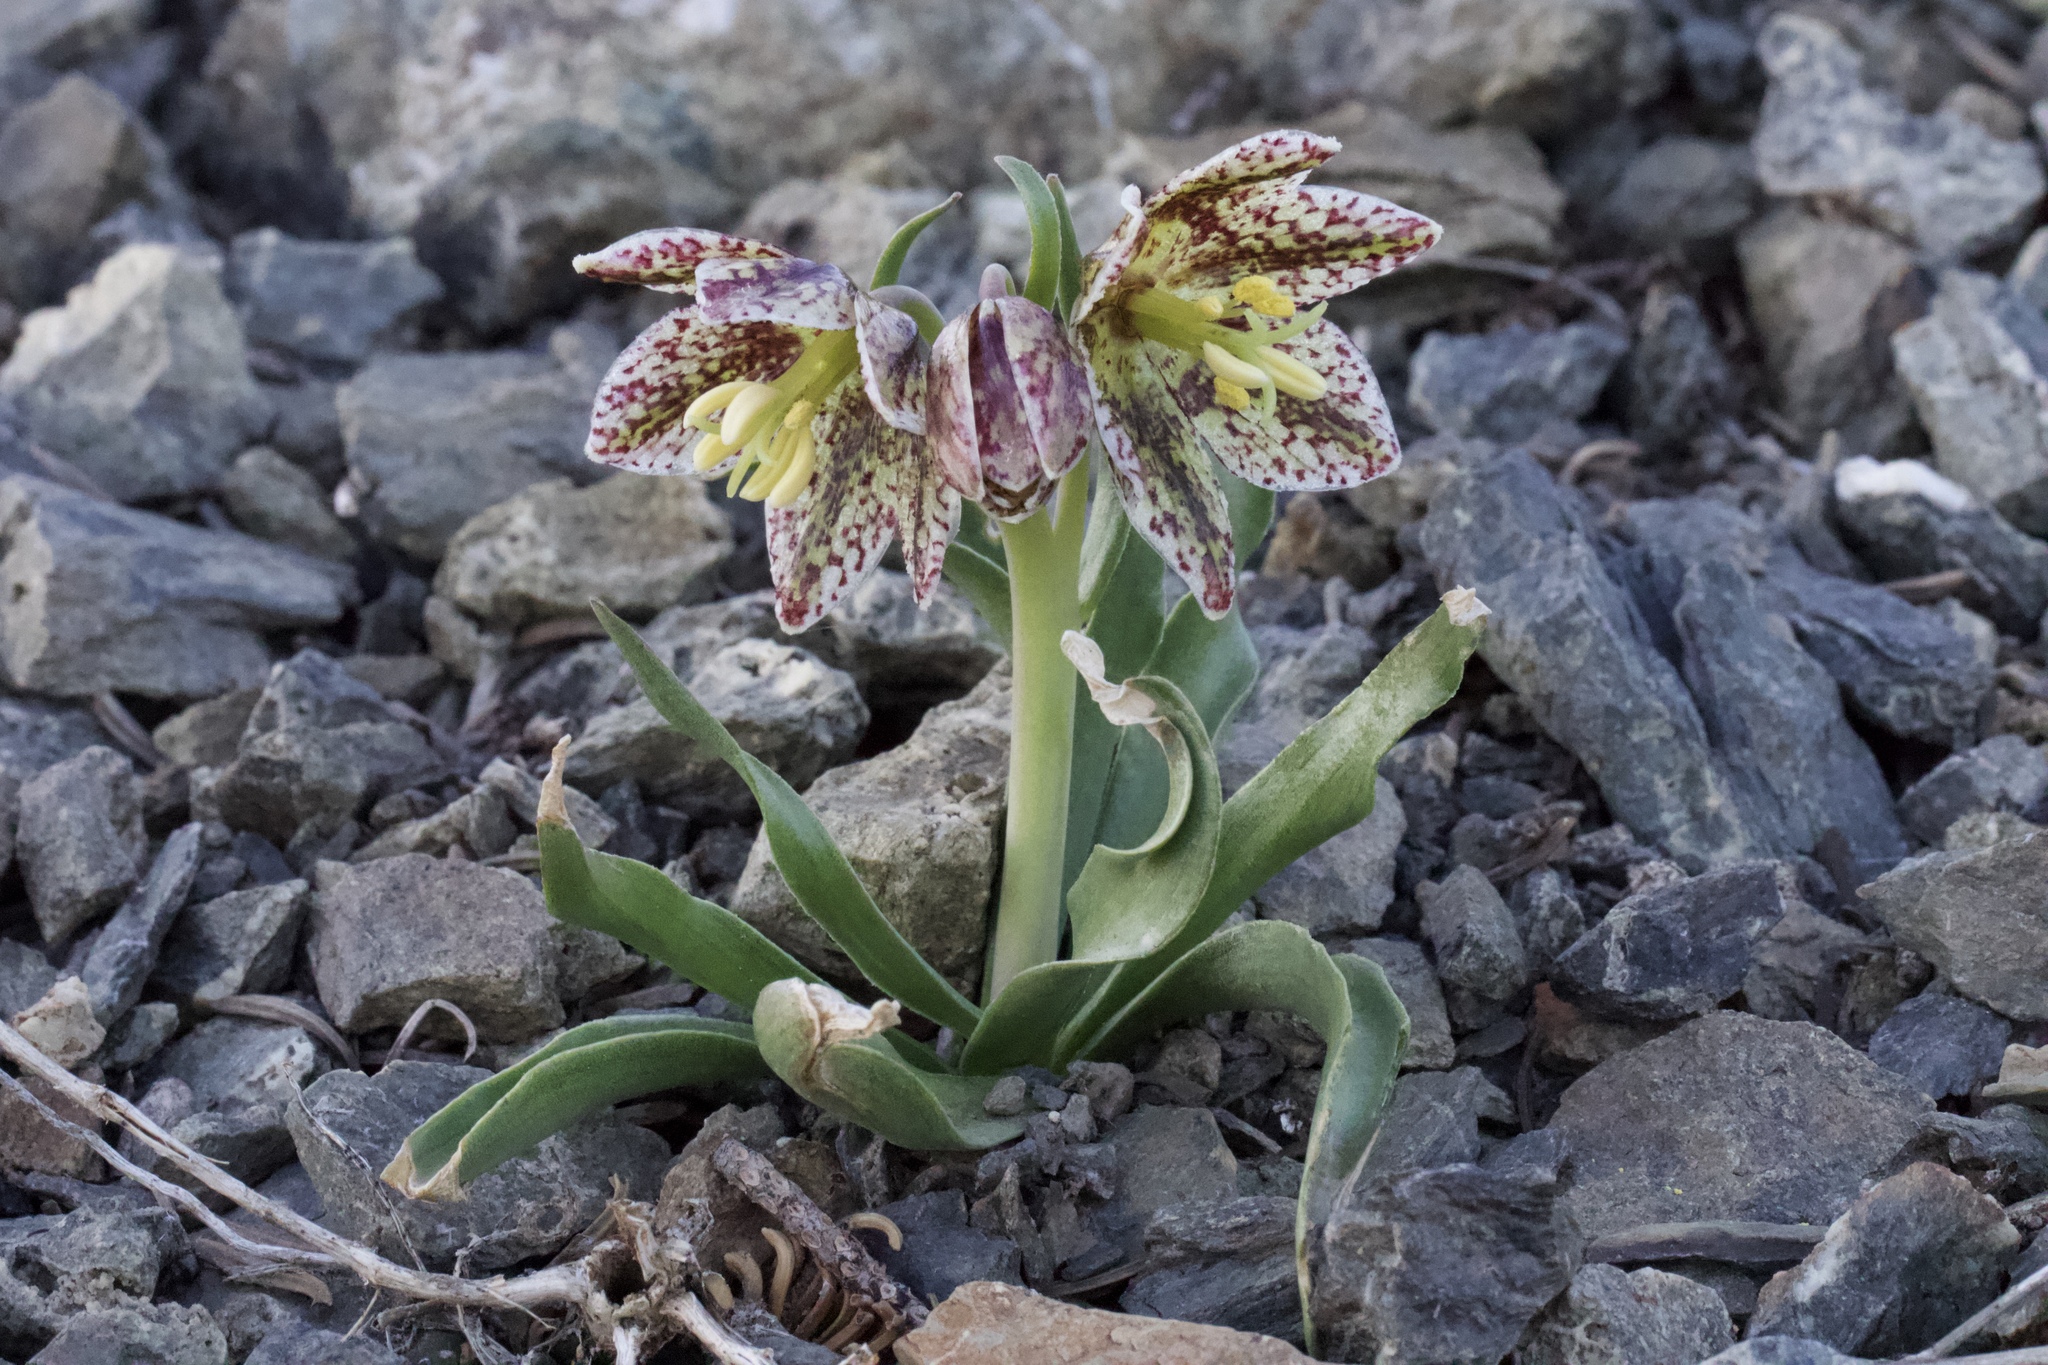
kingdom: Plantae
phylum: Tracheophyta
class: Liliopsida
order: Liliales
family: Liliaceae
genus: Fritillaria
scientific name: Fritillaria purdyi
